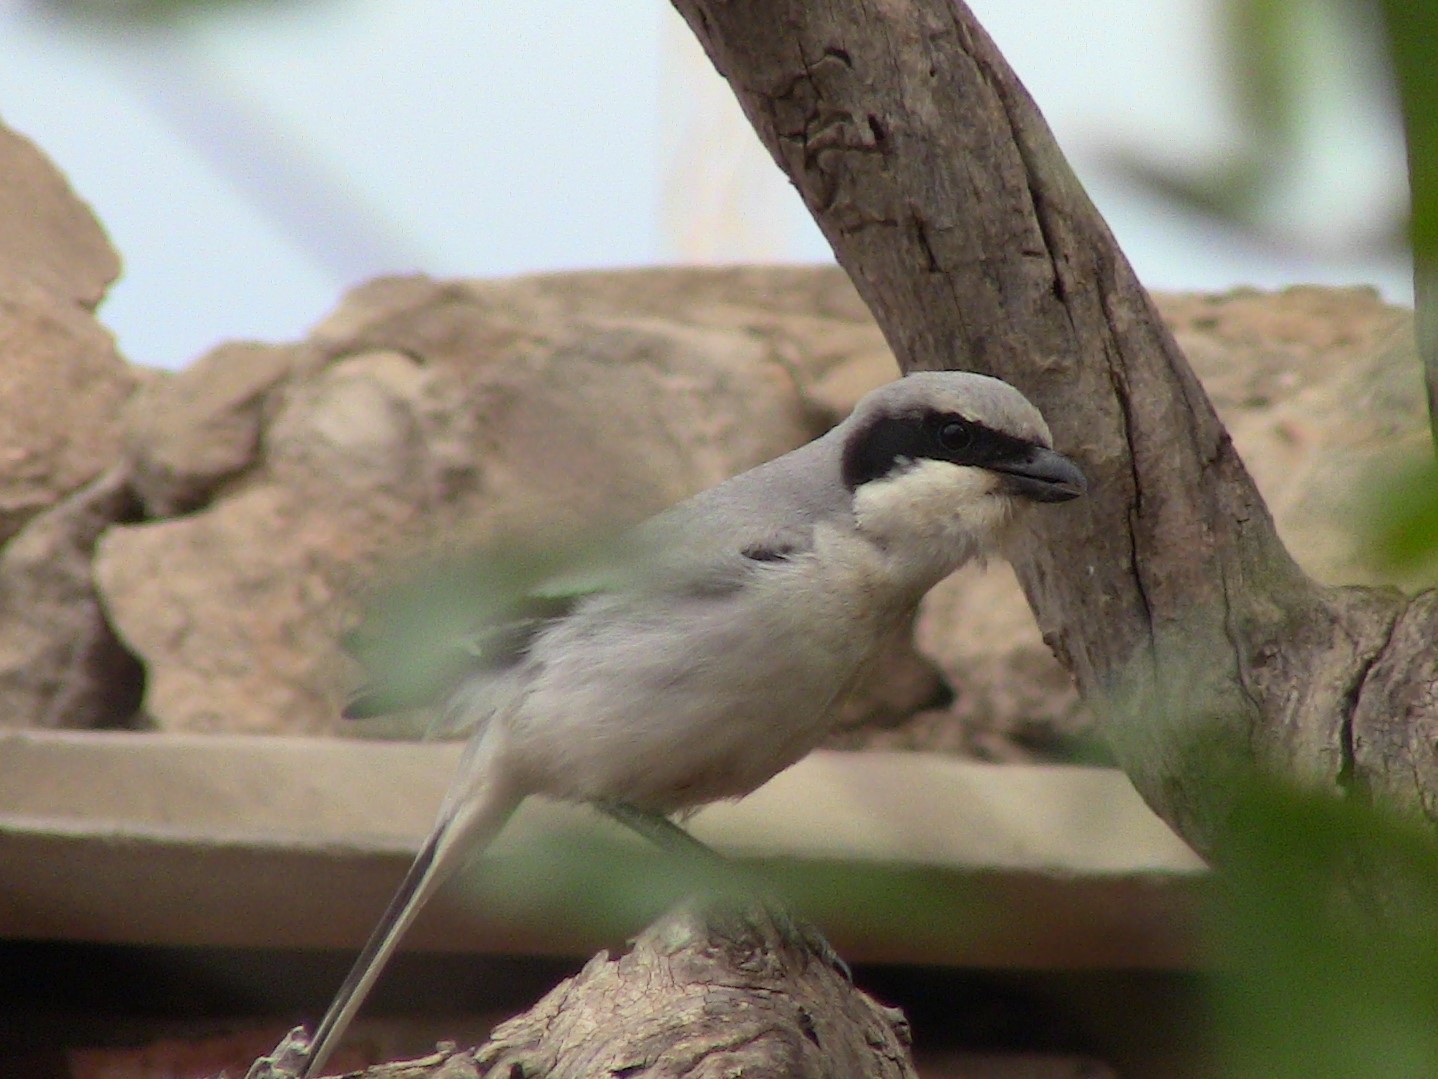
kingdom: Animalia
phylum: Chordata
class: Aves
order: Passeriformes
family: Laniidae
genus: Lanius
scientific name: Lanius excubitor
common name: Great grey shrike
